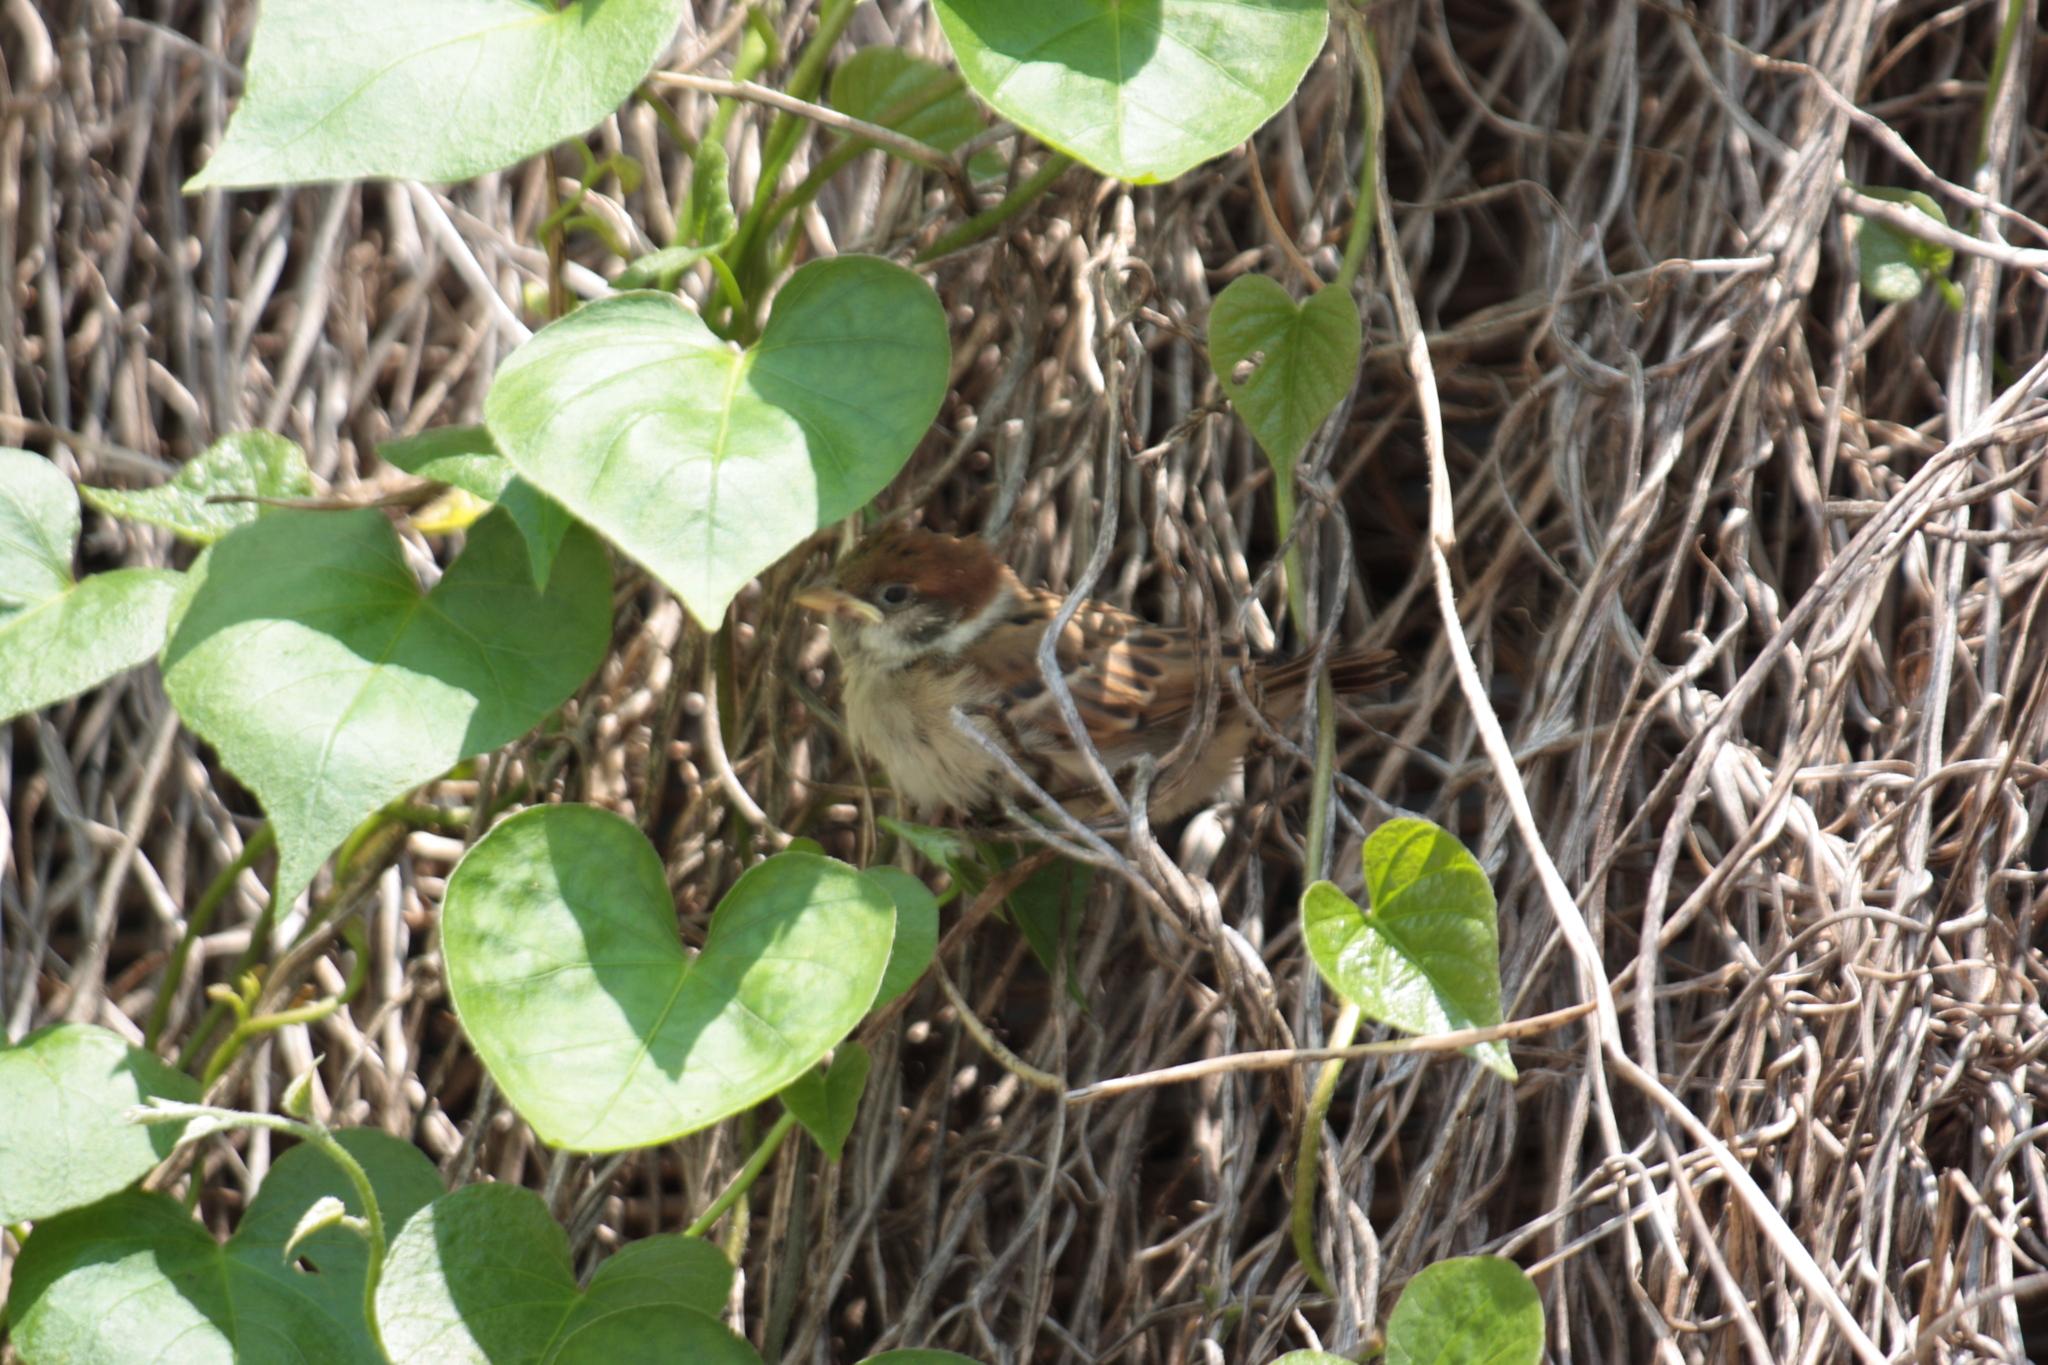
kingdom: Animalia
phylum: Chordata
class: Aves
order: Passeriformes
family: Passeridae
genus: Passer
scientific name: Passer montanus
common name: Eurasian tree sparrow
